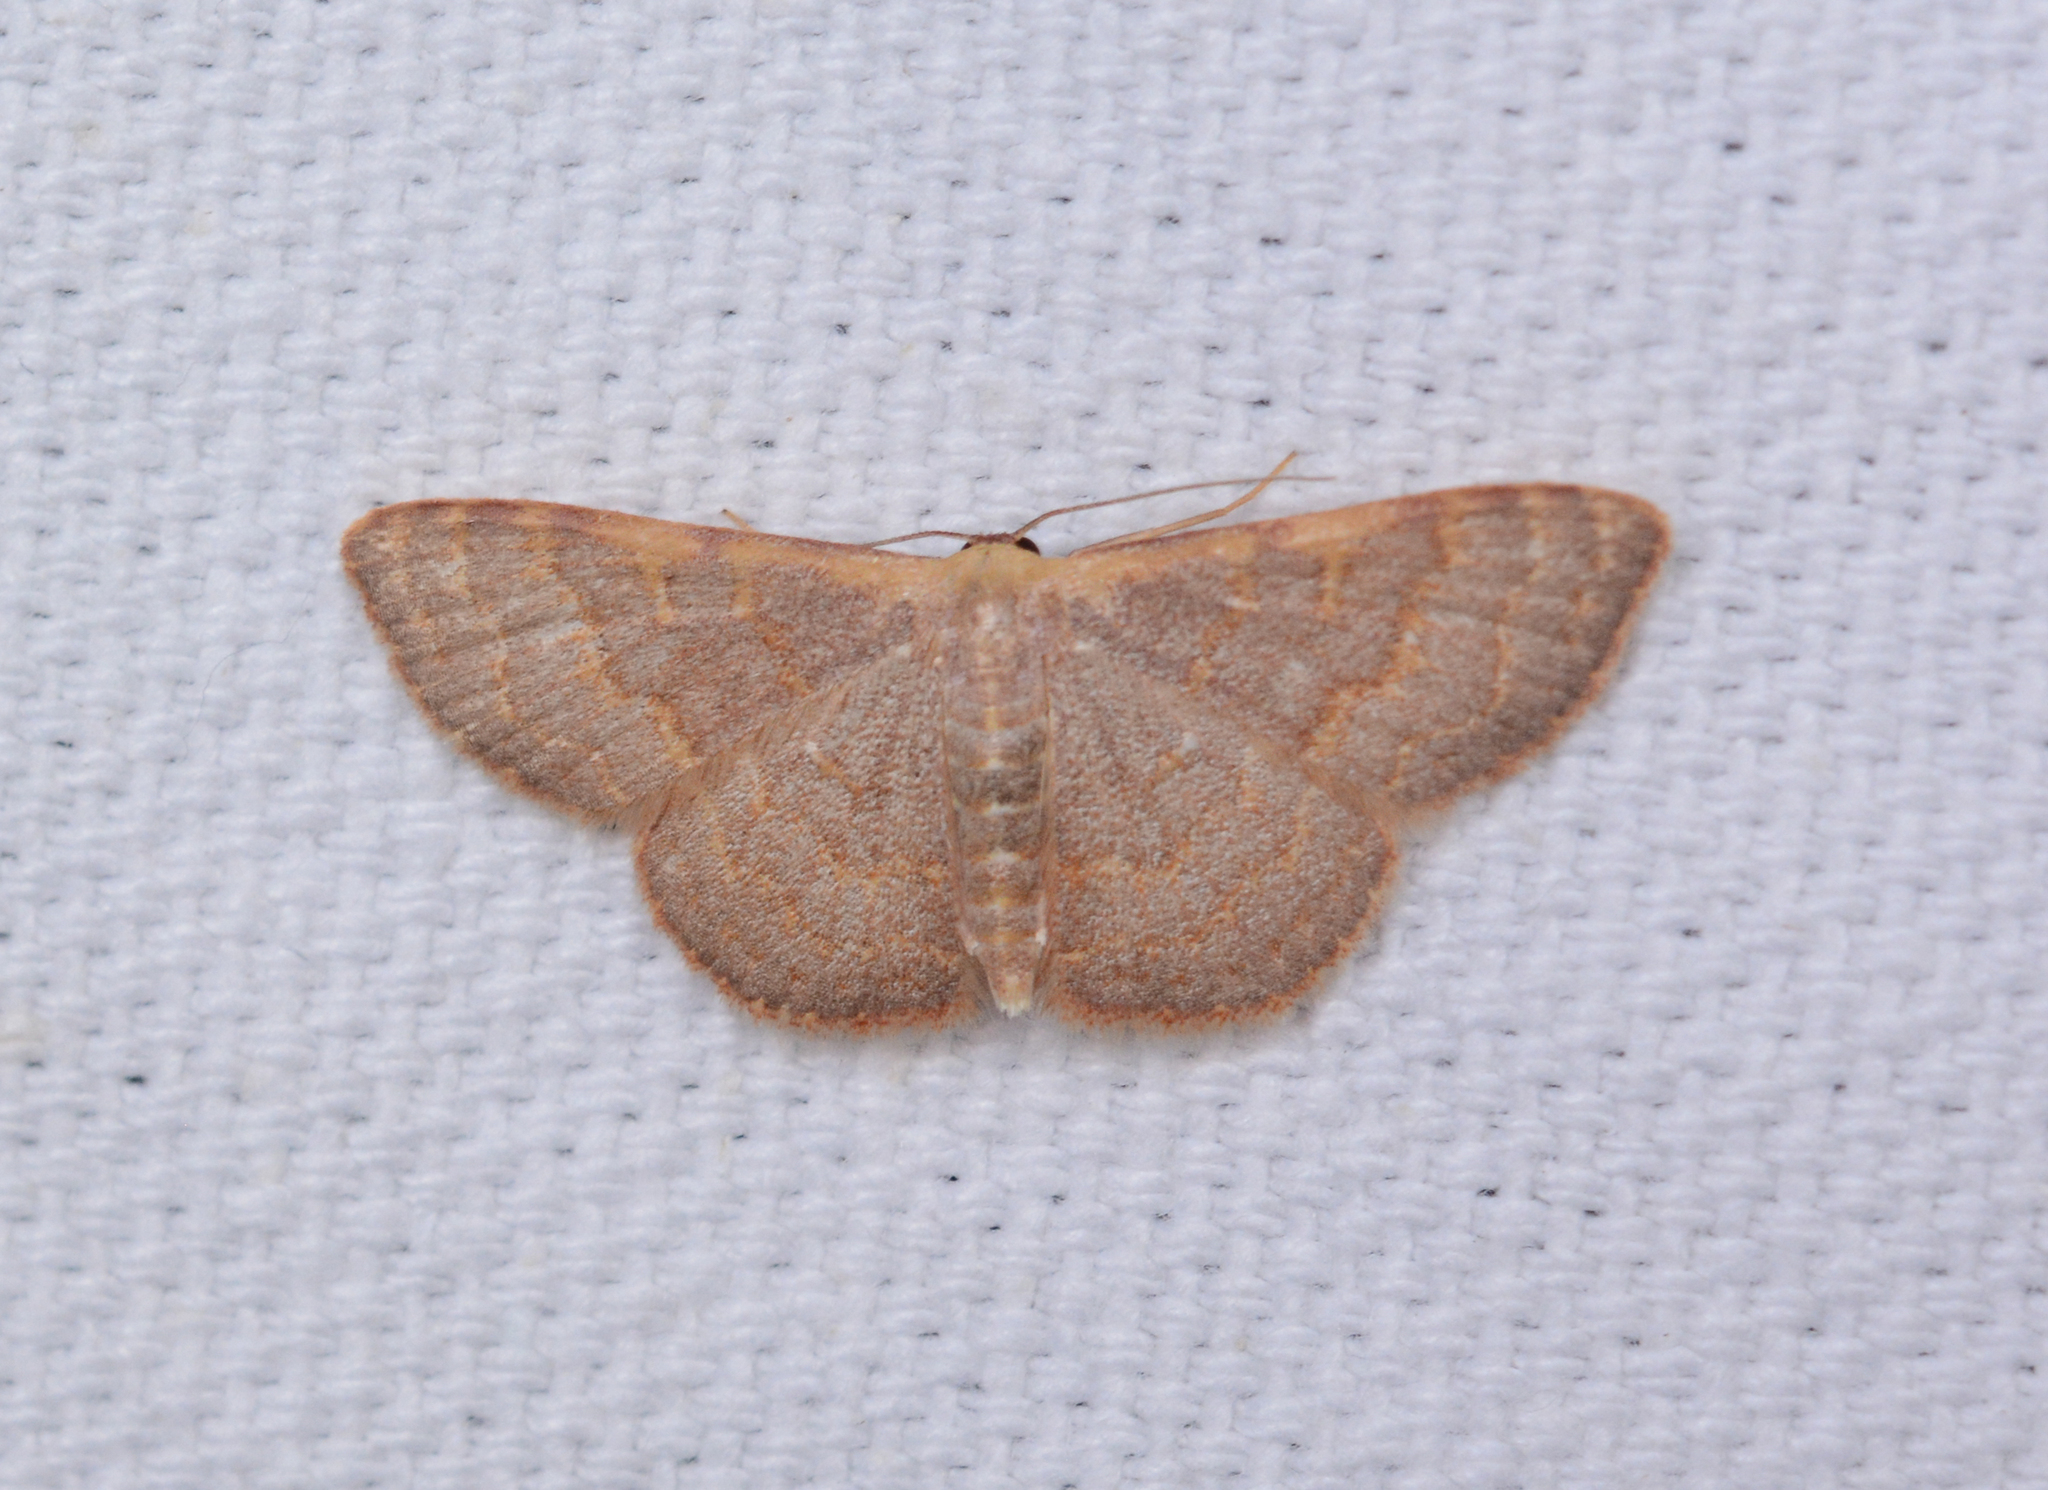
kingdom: Animalia
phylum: Arthropoda
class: Insecta
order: Lepidoptera
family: Geometridae
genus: Leptostales
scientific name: Leptostales pannaria
